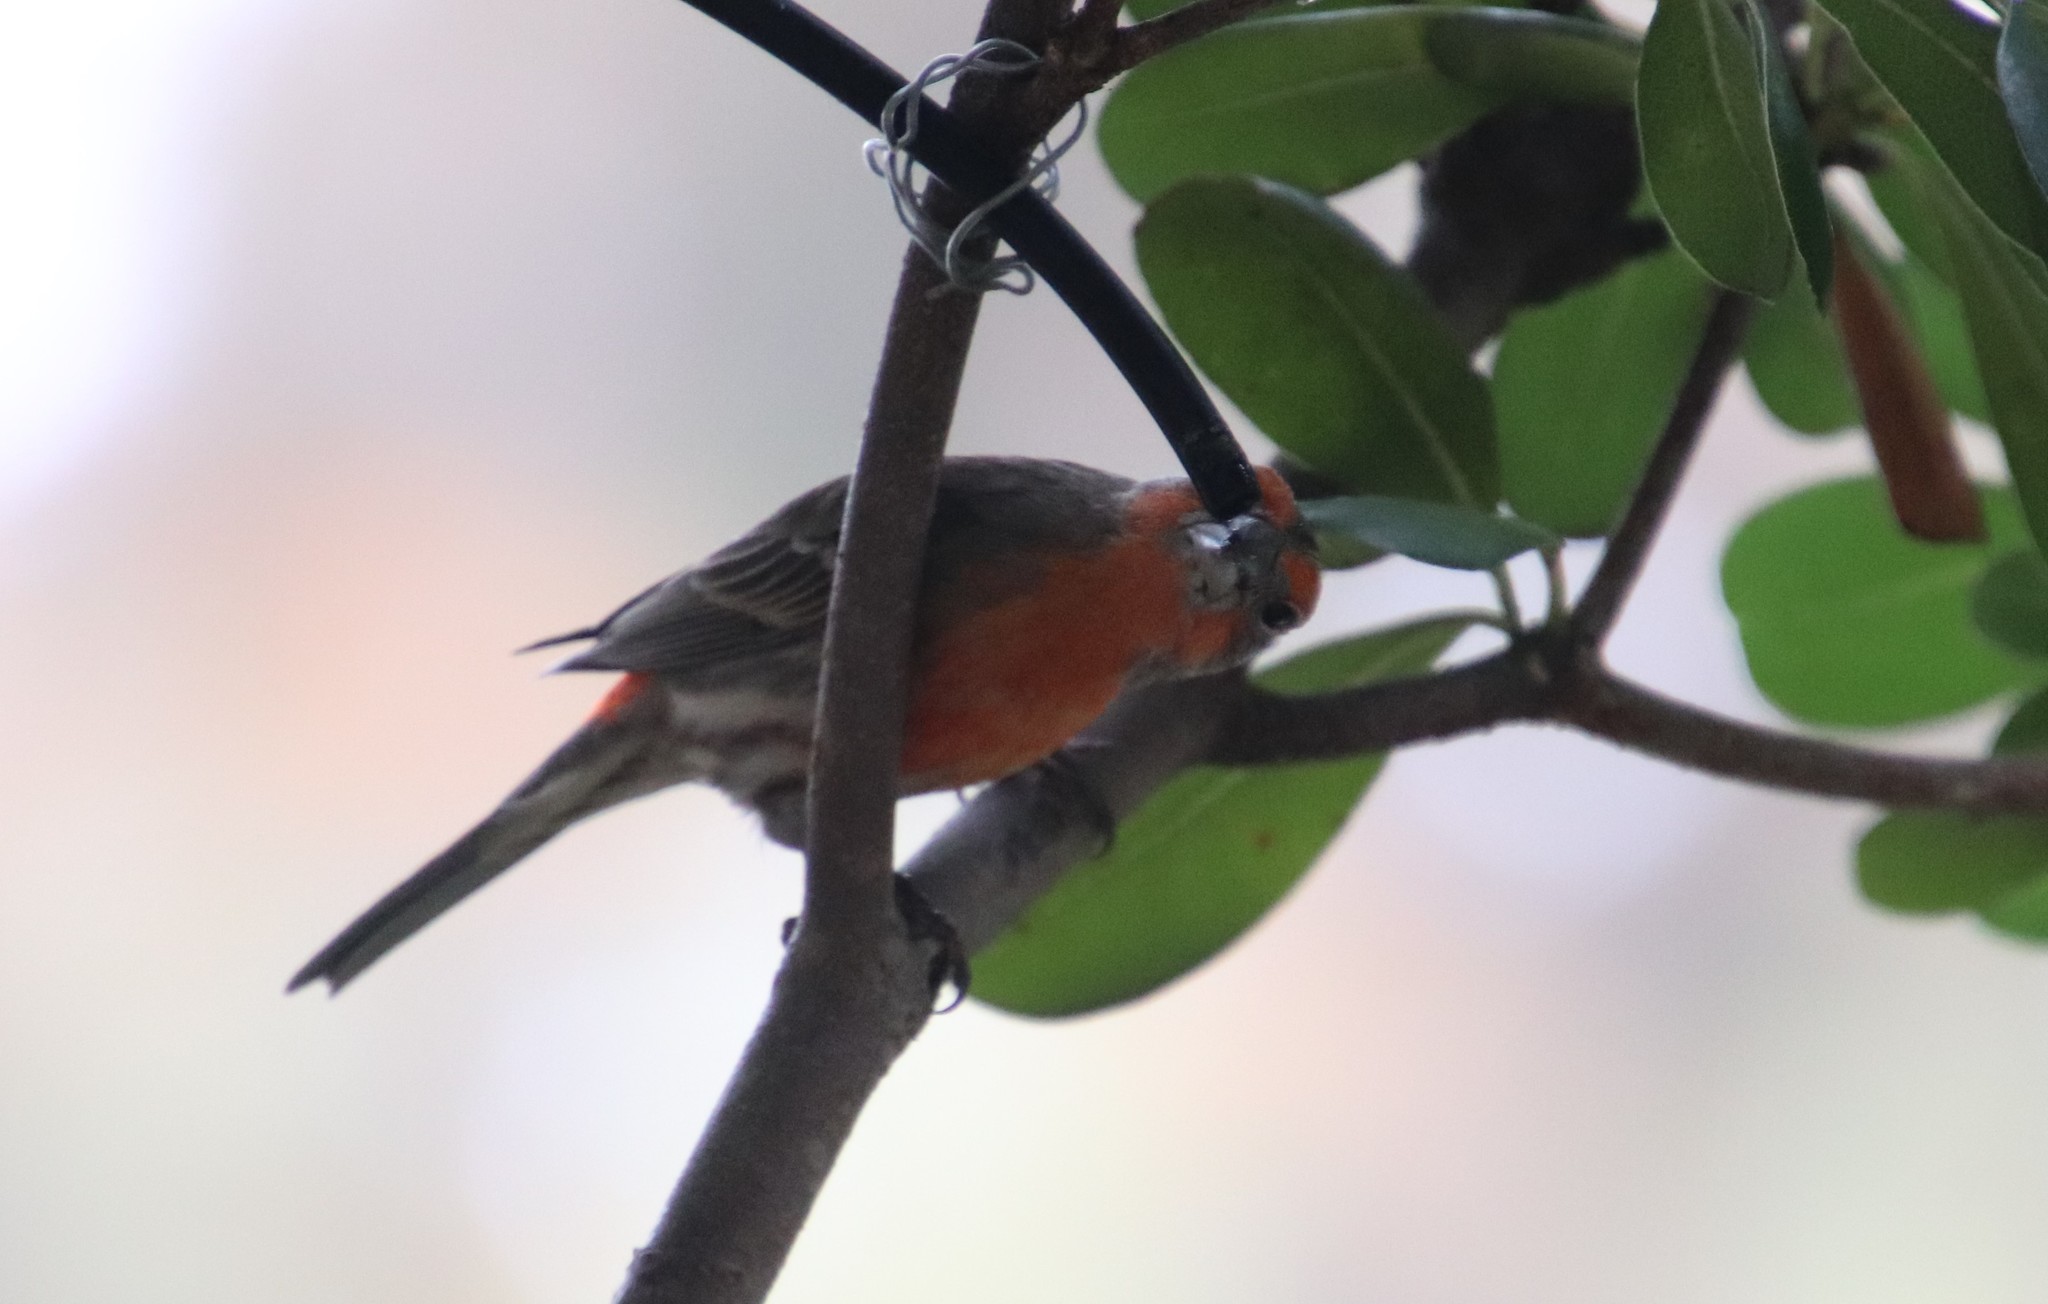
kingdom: Animalia
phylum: Chordata
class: Aves
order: Passeriformes
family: Fringillidae
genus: Haemorhous
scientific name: Haemorhous mexicanus
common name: House finch
